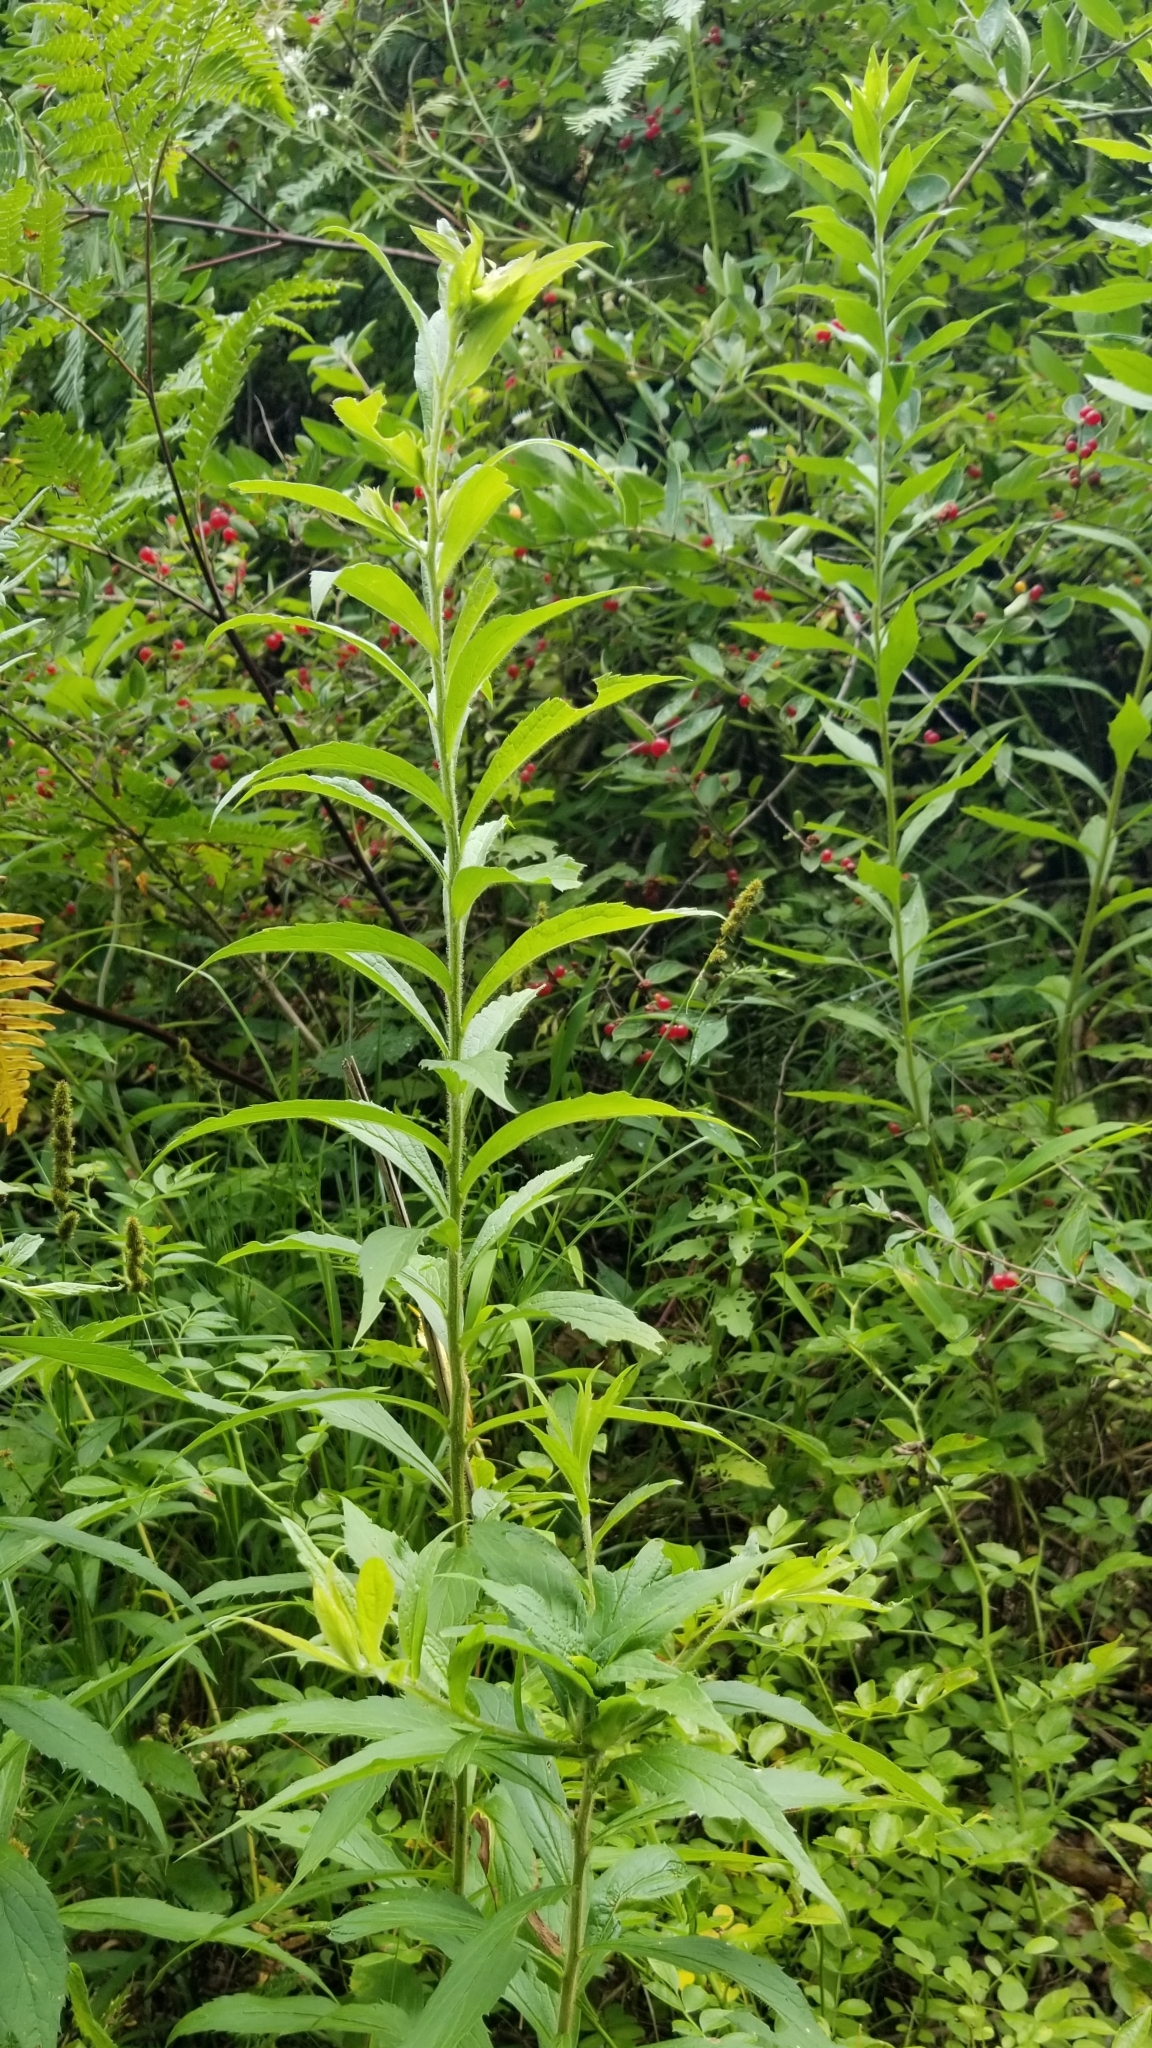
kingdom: Plantae
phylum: Tracheophyta
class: Magnoliopsida
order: Asterales
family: Asteraceae
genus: Solidago
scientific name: Solidago rugosa
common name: Rough-stemmed goldenrod
